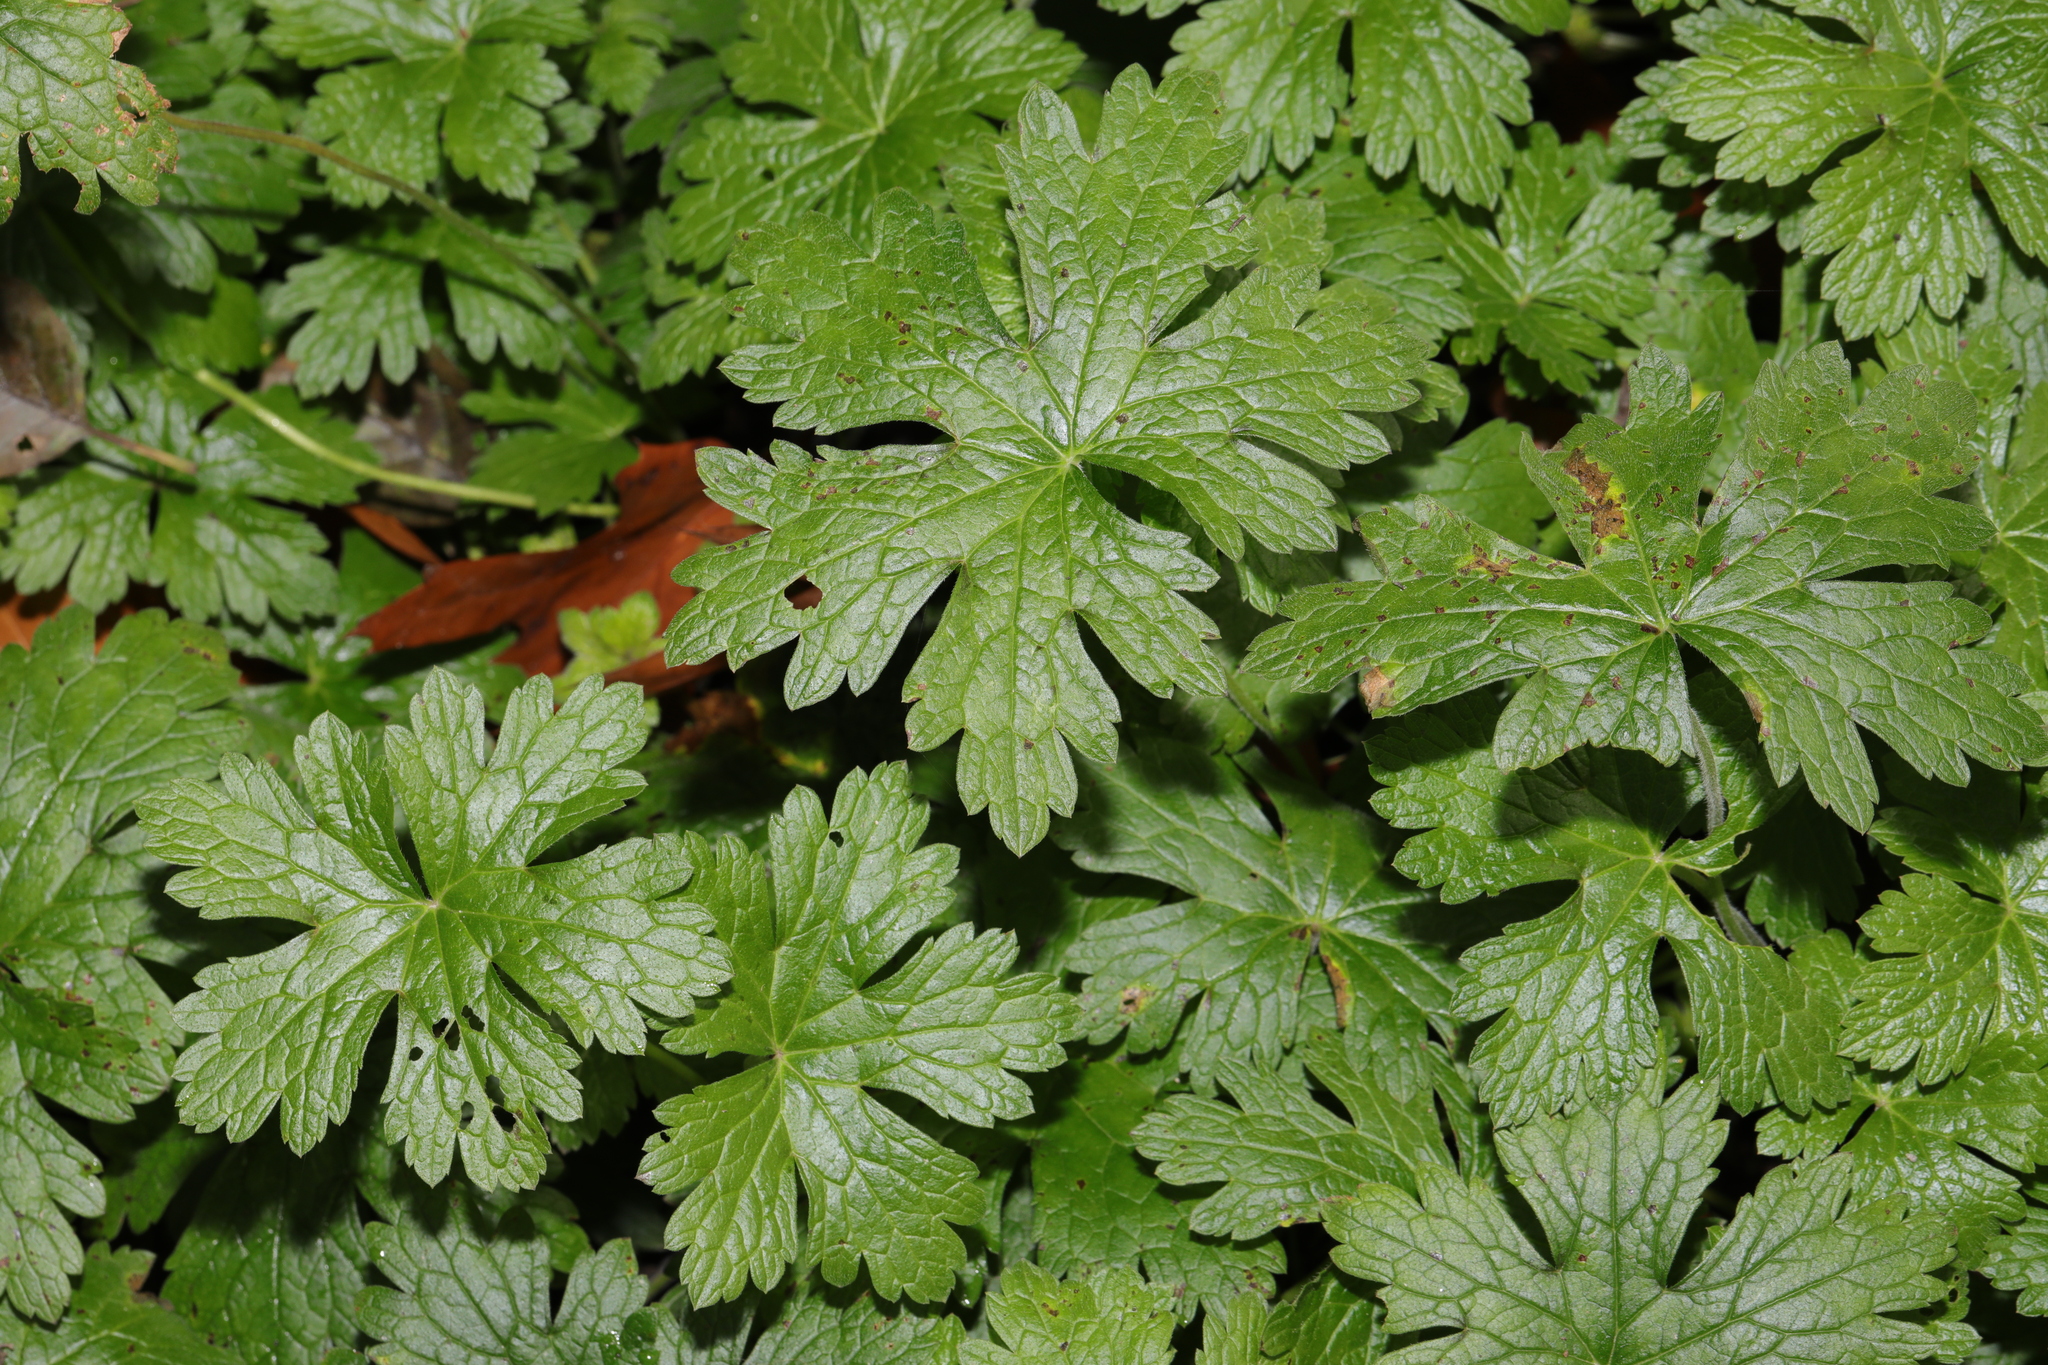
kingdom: Plantae
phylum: Tracheophyta
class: Magnoliopsida
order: Geraniales
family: Geraniaceae
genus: Geranium
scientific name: Geranium oxonianum
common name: Druce's crane's-bill
